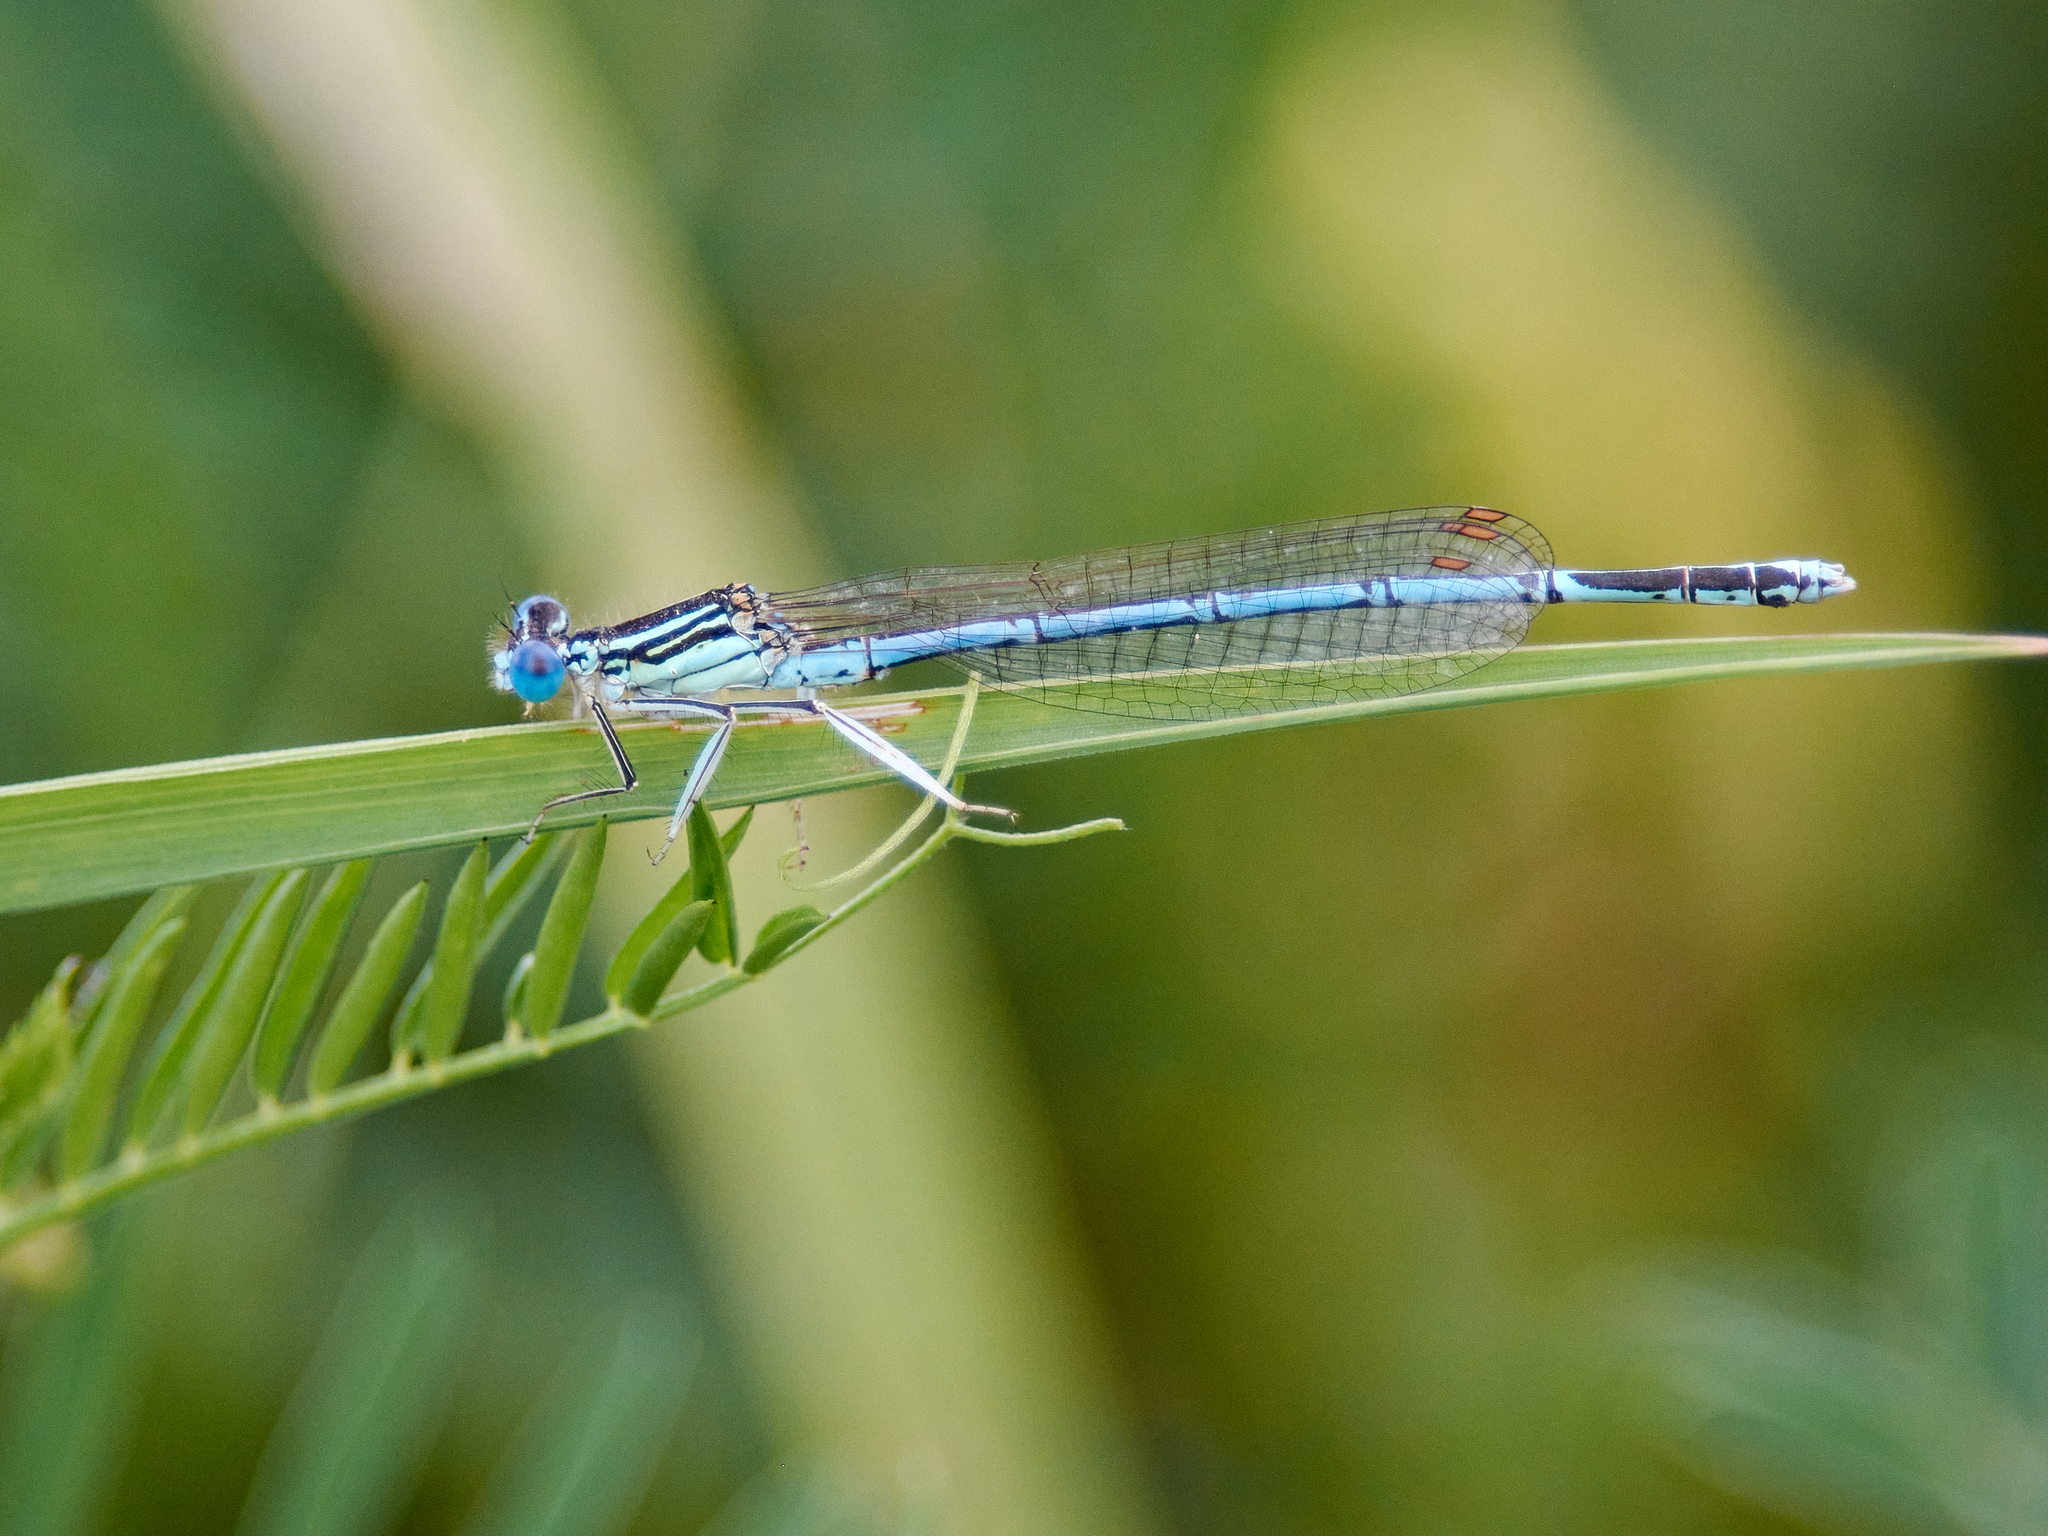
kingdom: Animalia
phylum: Arthropoda
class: Insecta
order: Odonata
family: Platycnemididae
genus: Platycnemis
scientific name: Platycnemis pennipes
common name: White-legged damselfly
